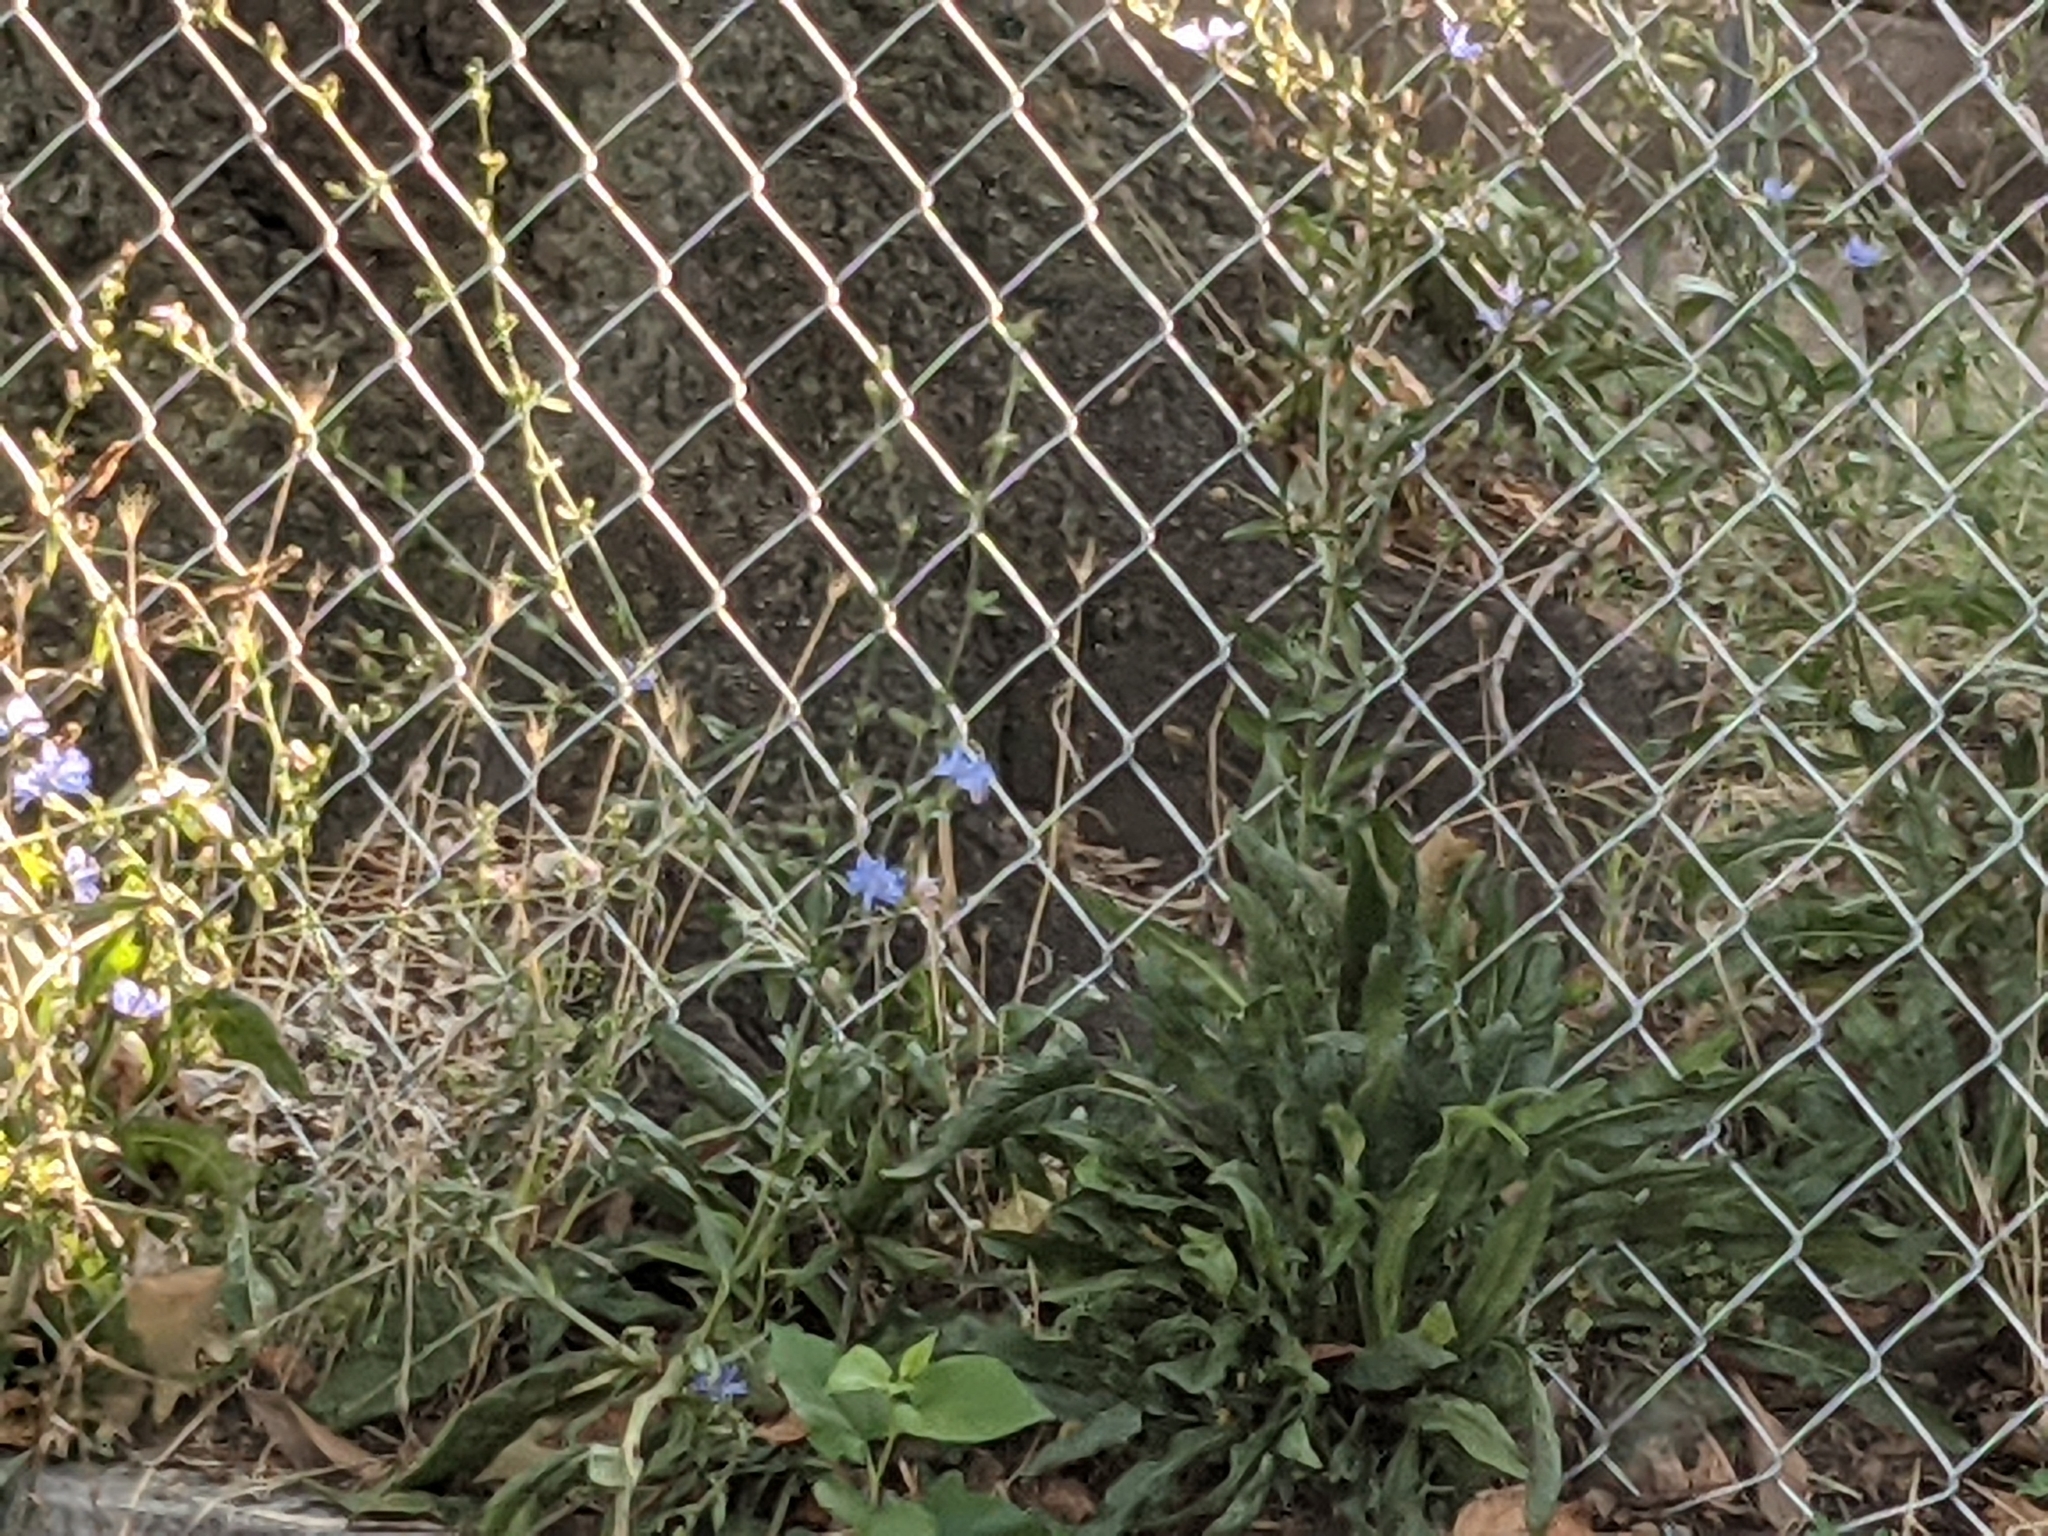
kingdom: Plantae
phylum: Tracheophyta
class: Magnoliopsida
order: Asterales
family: Asteraceae
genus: Cichorium
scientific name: Cichorium intybus
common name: Chicory
